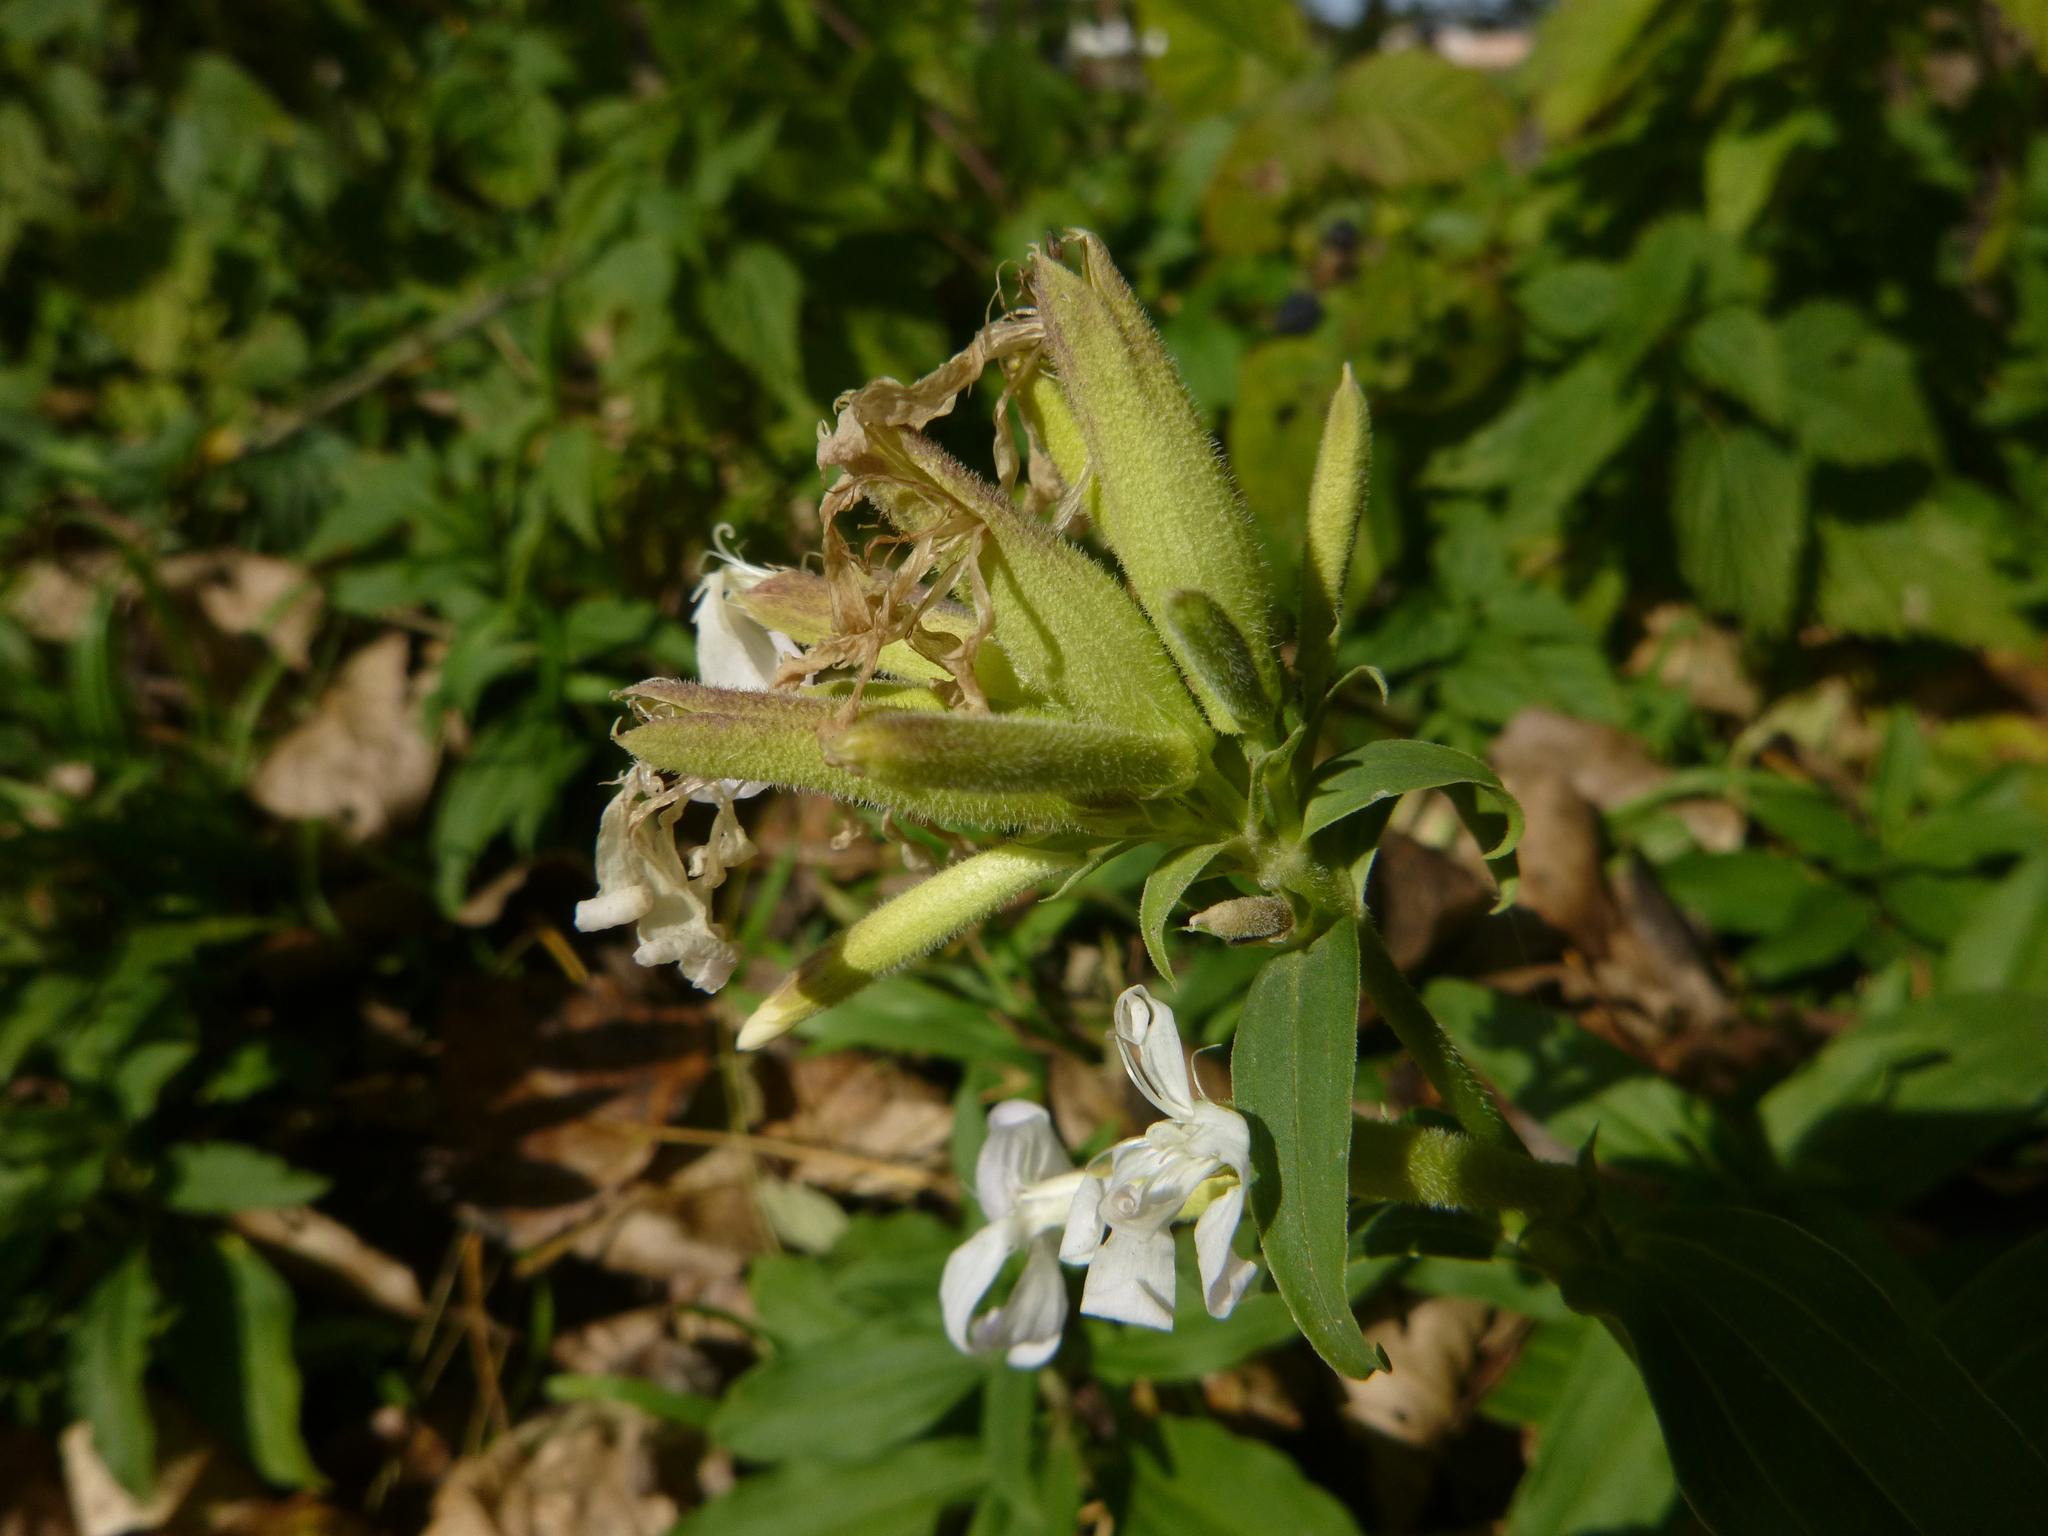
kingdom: Plantae
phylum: Tracheophyta
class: Magnoliopsida
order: Caryophyllales
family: Caryophyllaceae
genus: Saponaria
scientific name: Saponaria officinalis
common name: Soapwort
